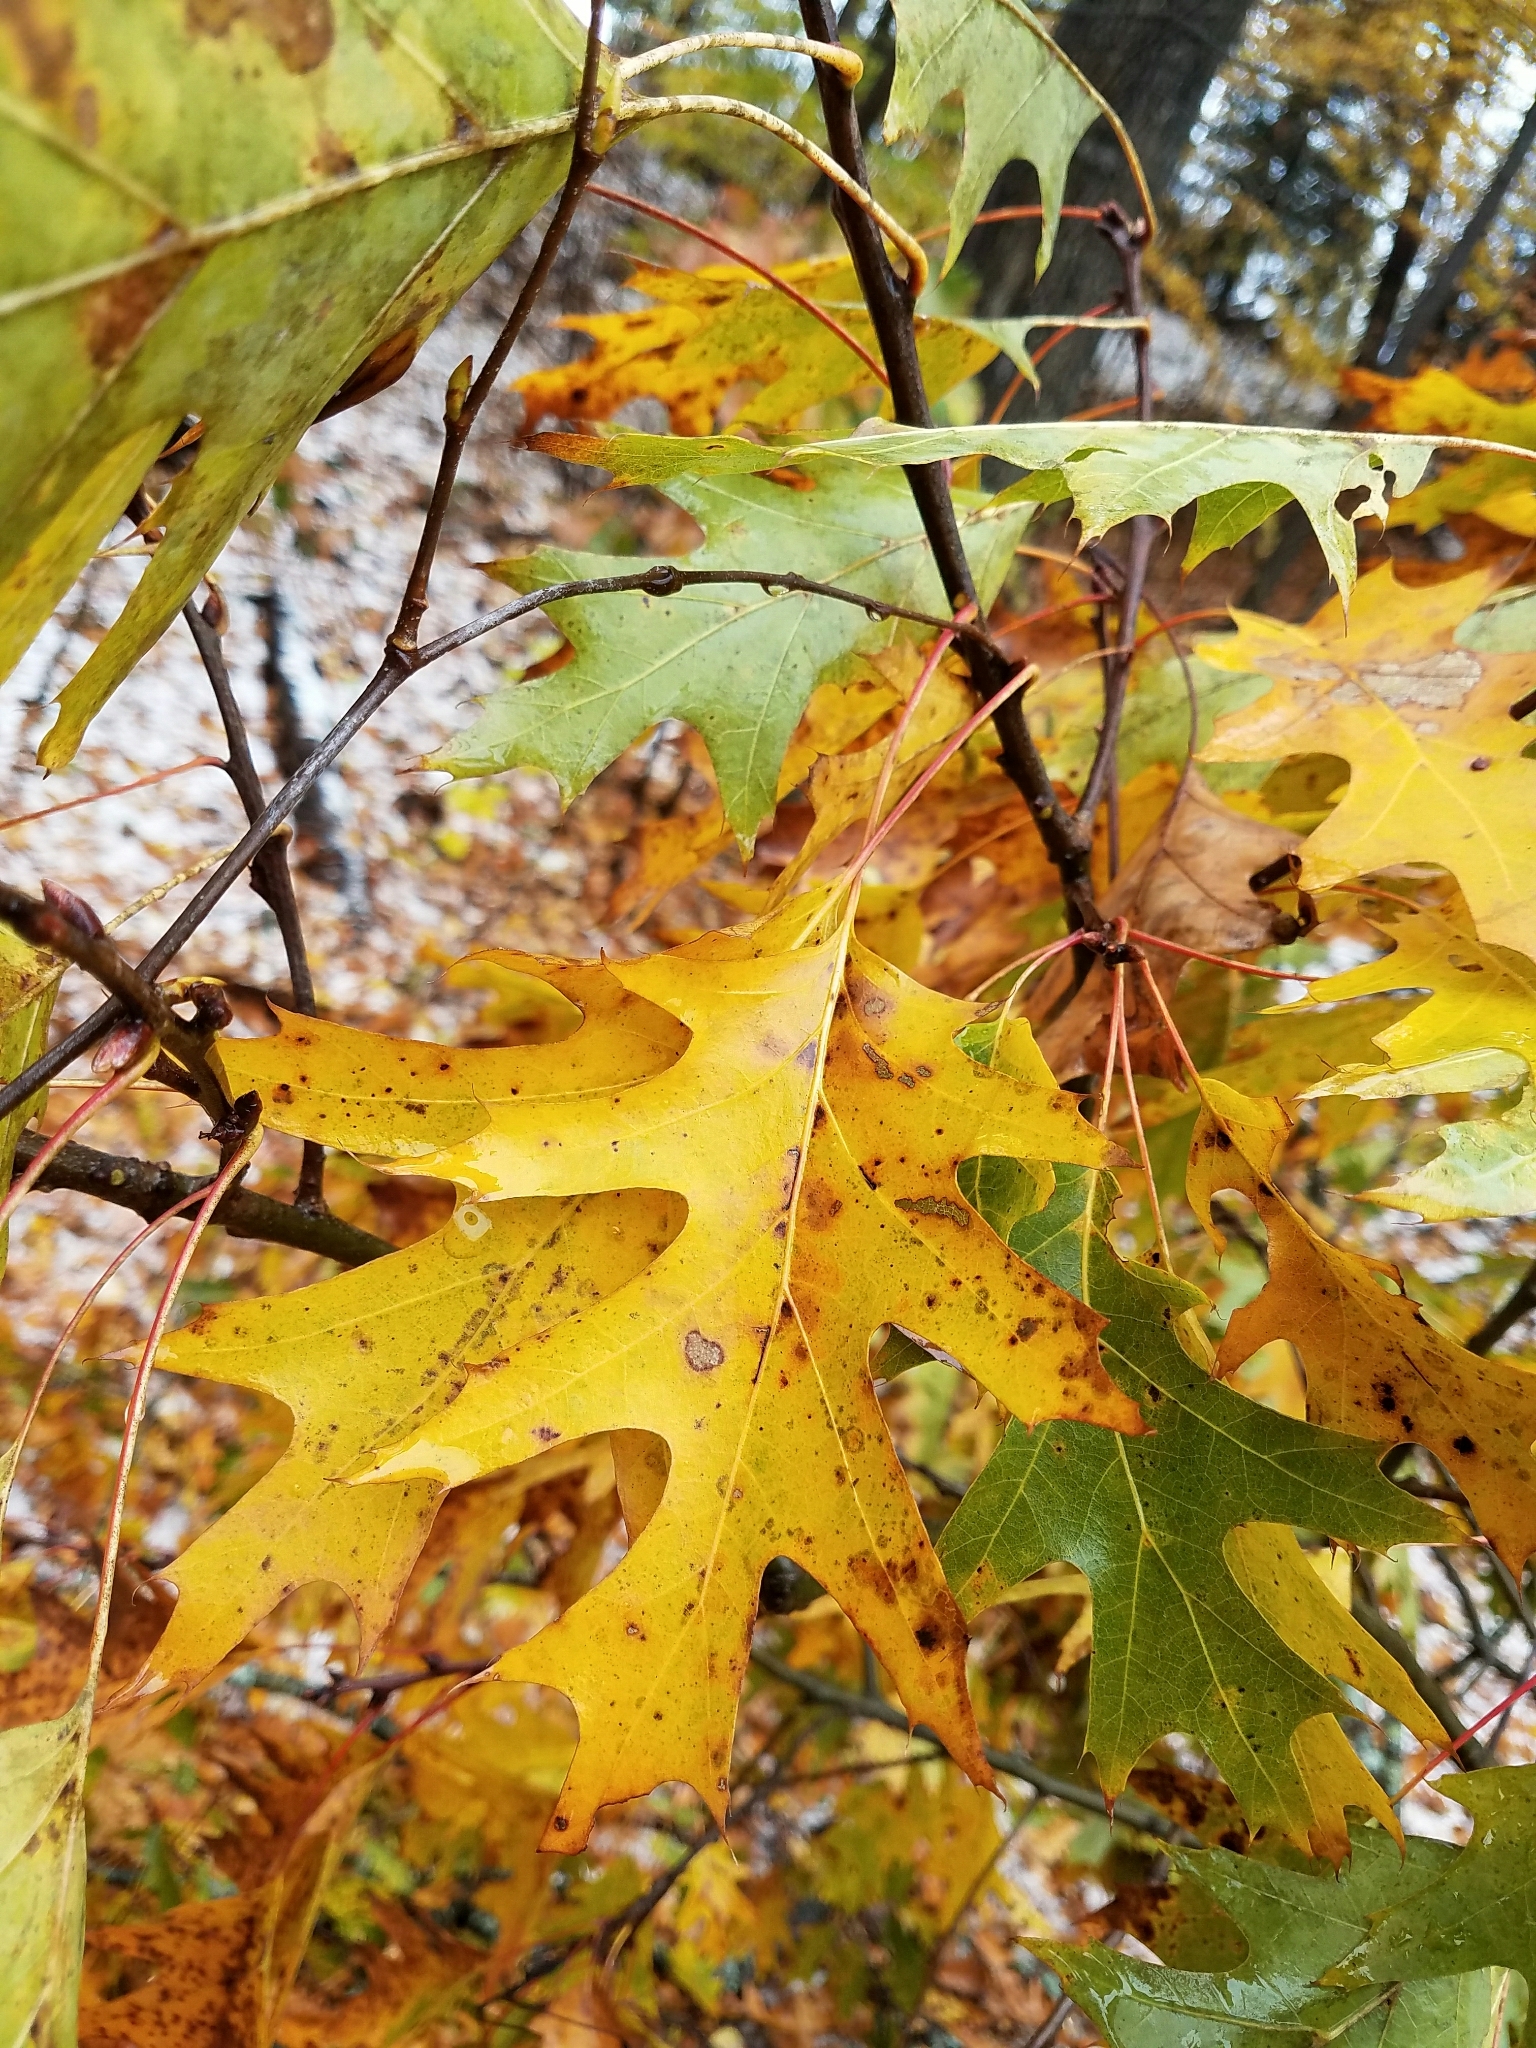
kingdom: Plantae
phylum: Tracheophyta
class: Magnoliopsida
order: Fagales
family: Fagaceae
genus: Quercus
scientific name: Quercus rubra
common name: Red oak
